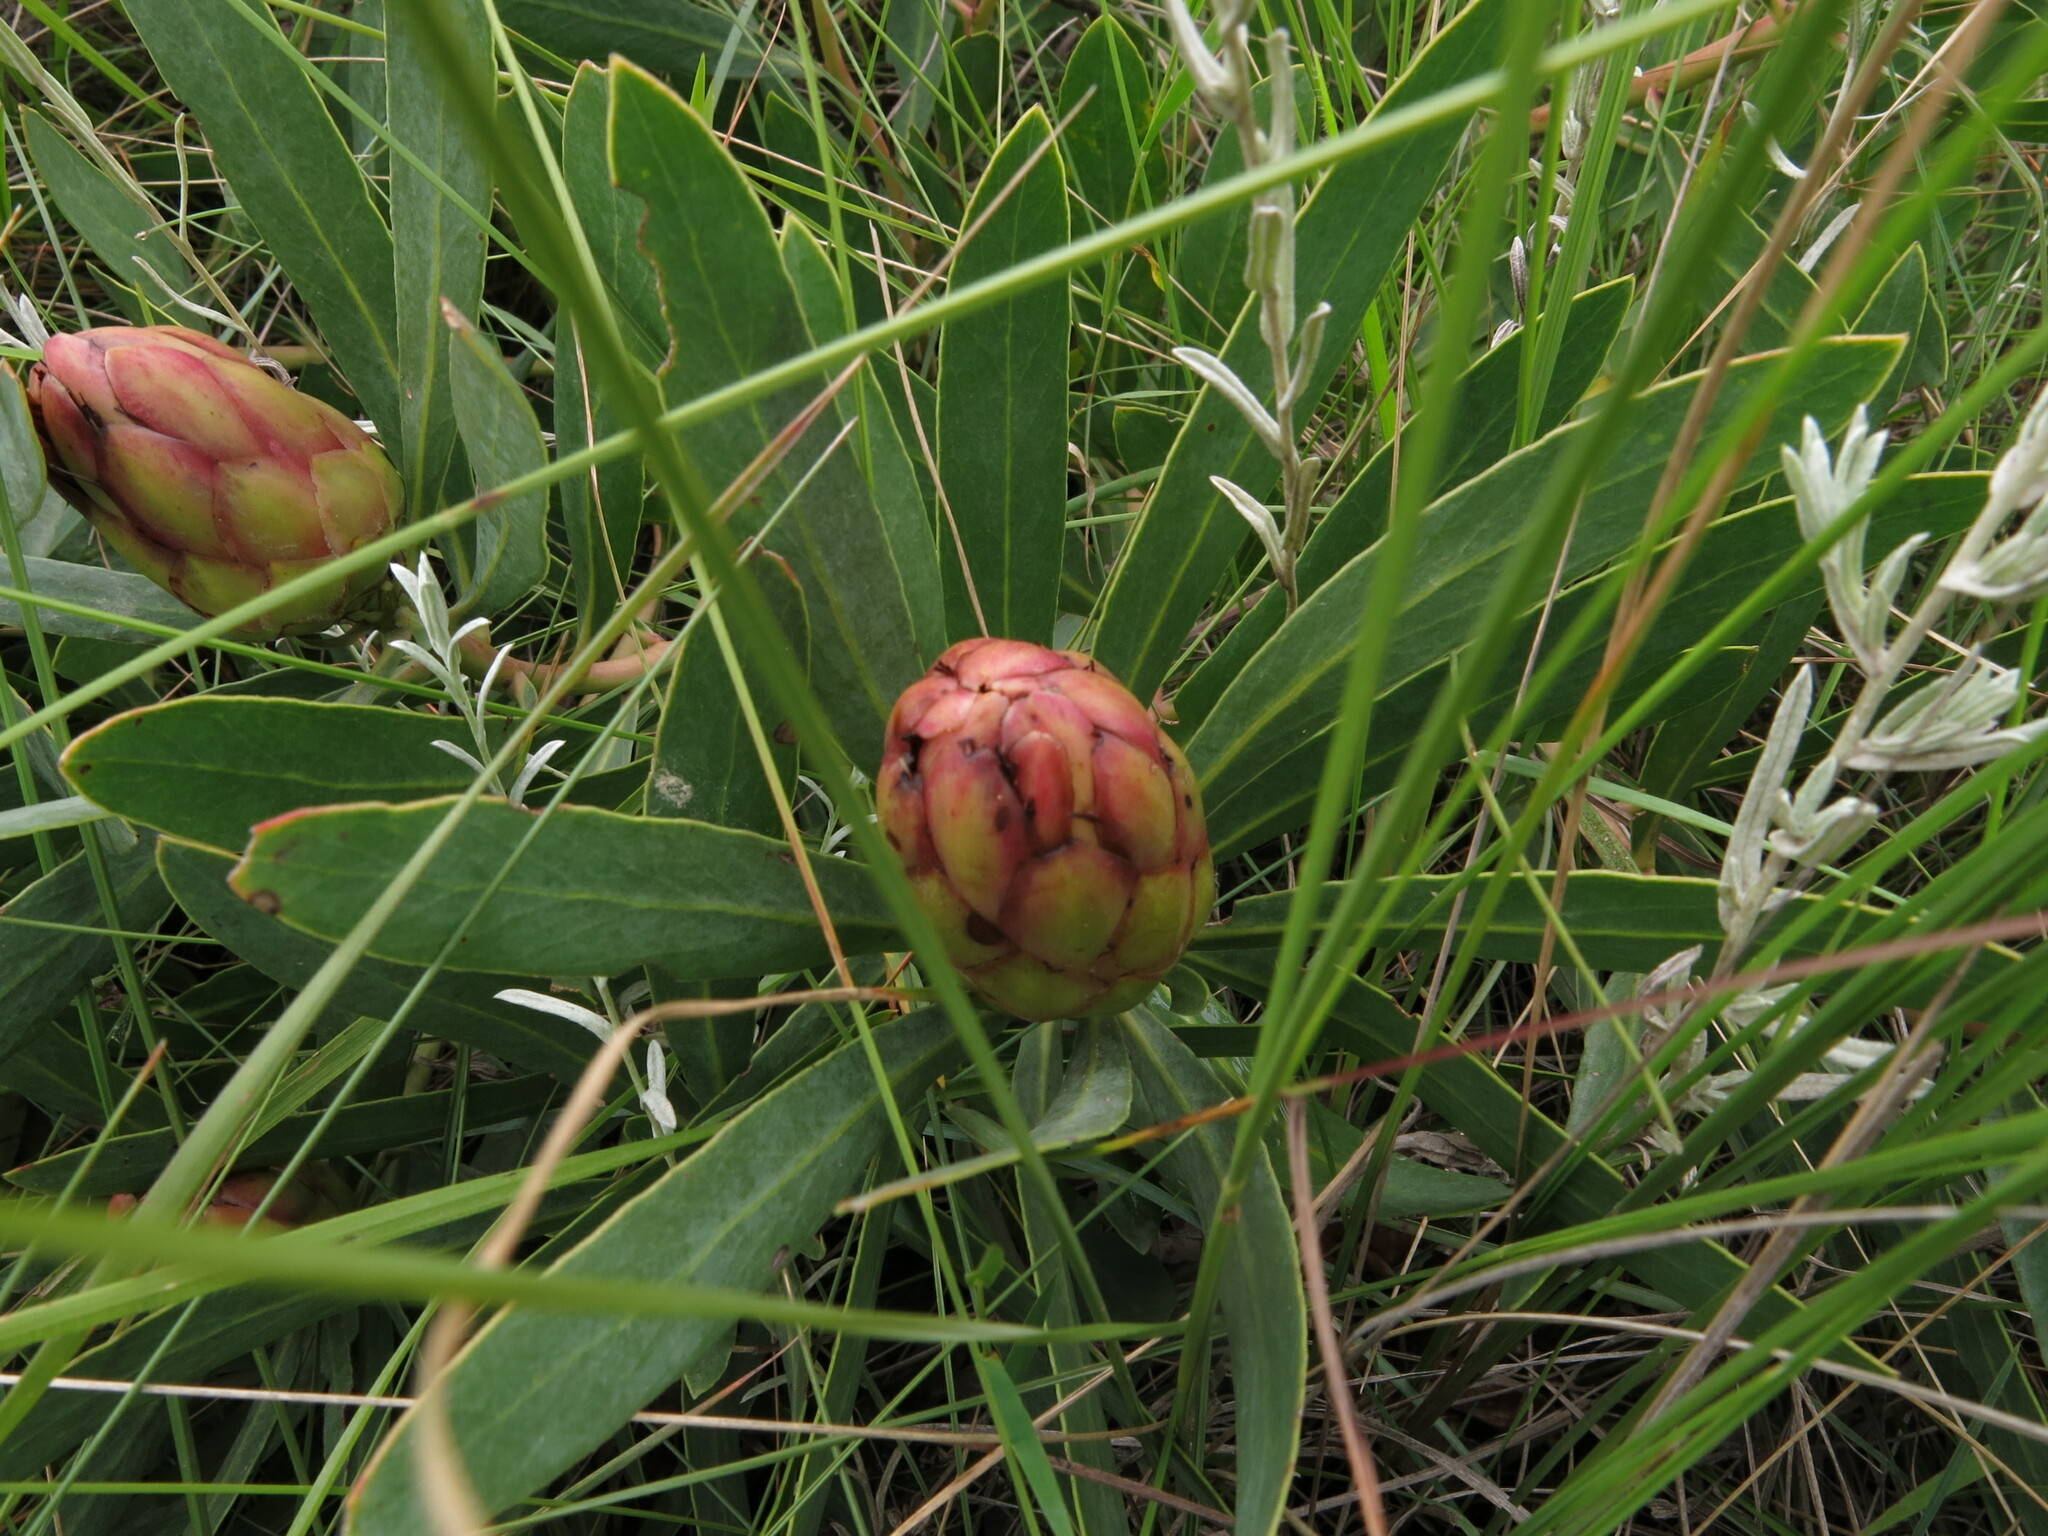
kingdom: Plantae
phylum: Tracheophyta
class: Magnoliopsida
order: Proteales
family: Proteaceae
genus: Protea
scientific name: Protea simplex
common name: Dwarf grassveld sugarbush
